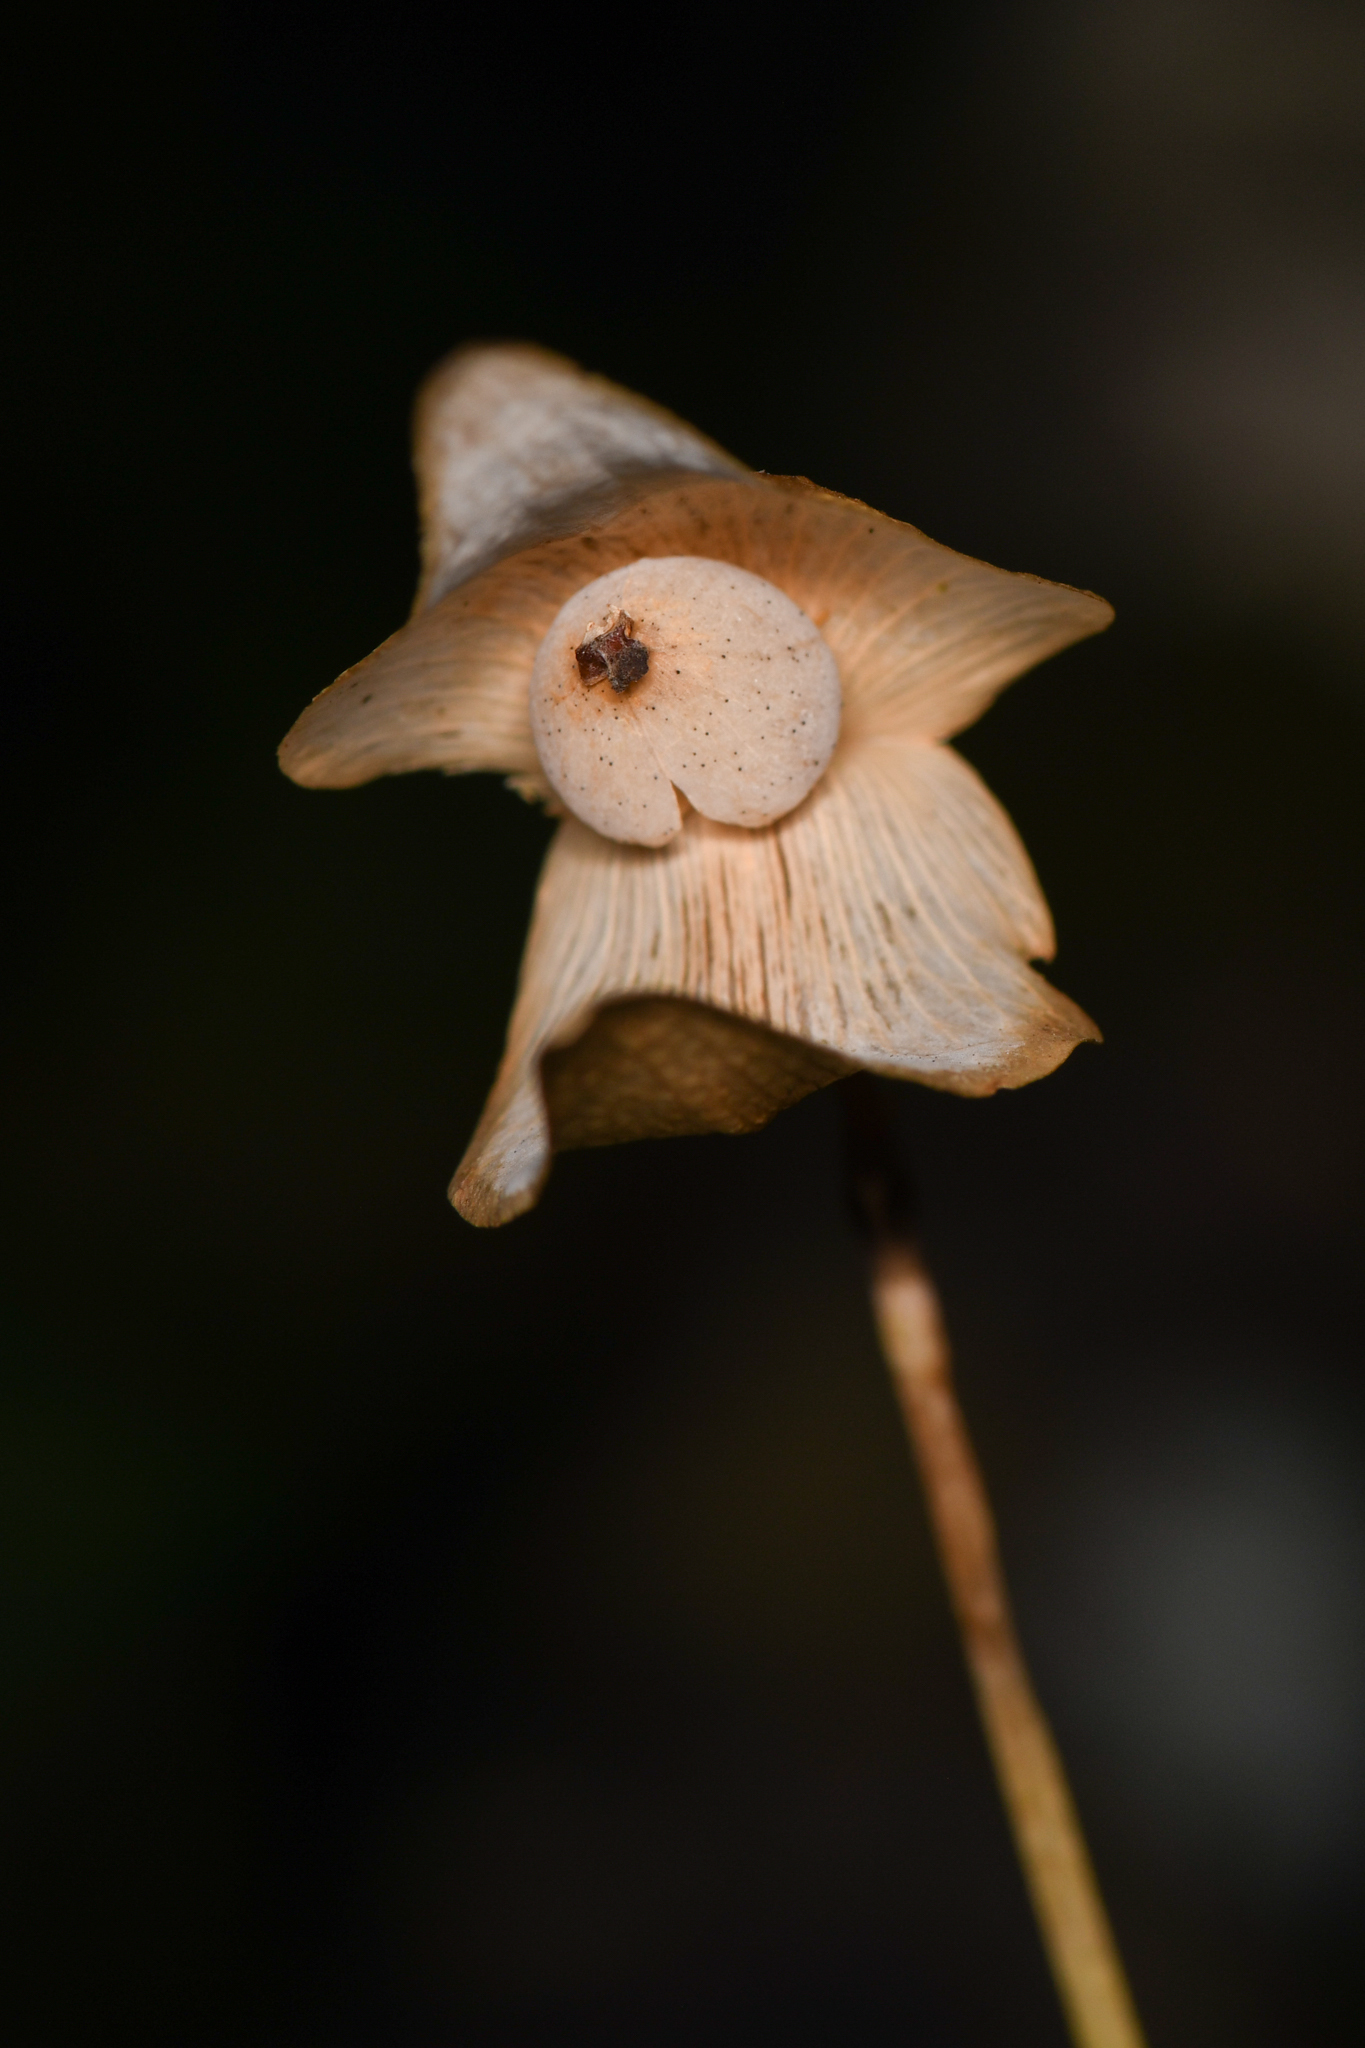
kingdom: Plantae
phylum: Tracheophyta
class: Magnoliopsida
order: Lamiales
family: Lentibulariaceae
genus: Utricularia
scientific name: Utricularia praetermissa
